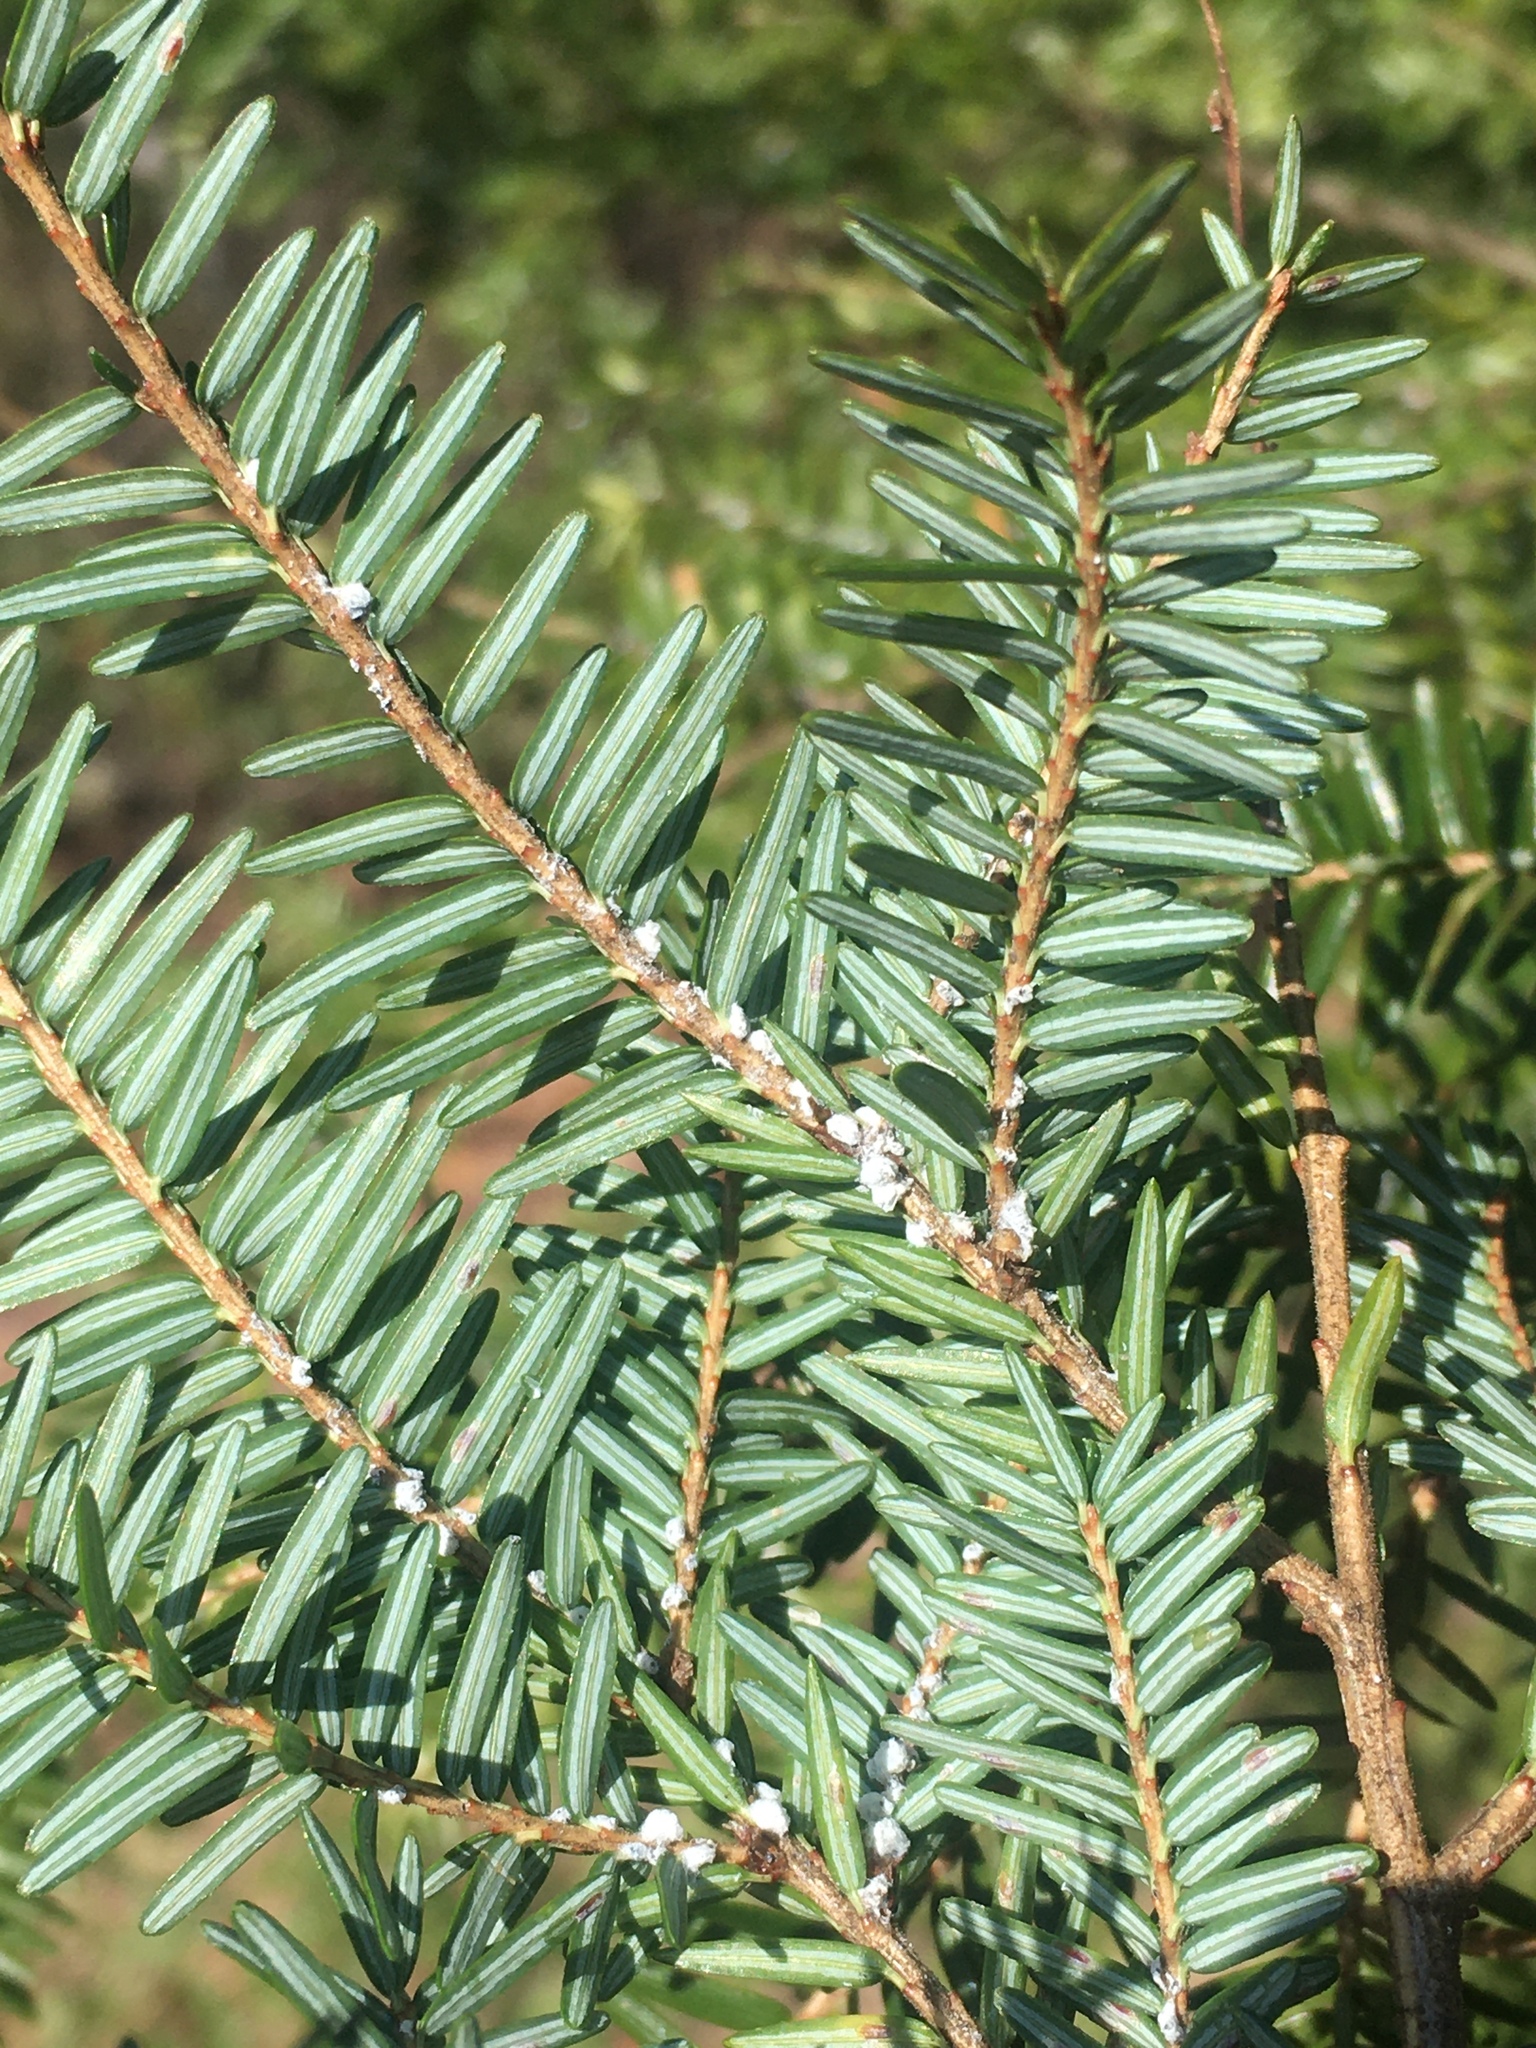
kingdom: Animalia
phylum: Arthropoda
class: Insecta
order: Hemiptera
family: Adelgidae
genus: Adelges
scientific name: Adelges tsugae
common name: Hemlock woolly adelgid
